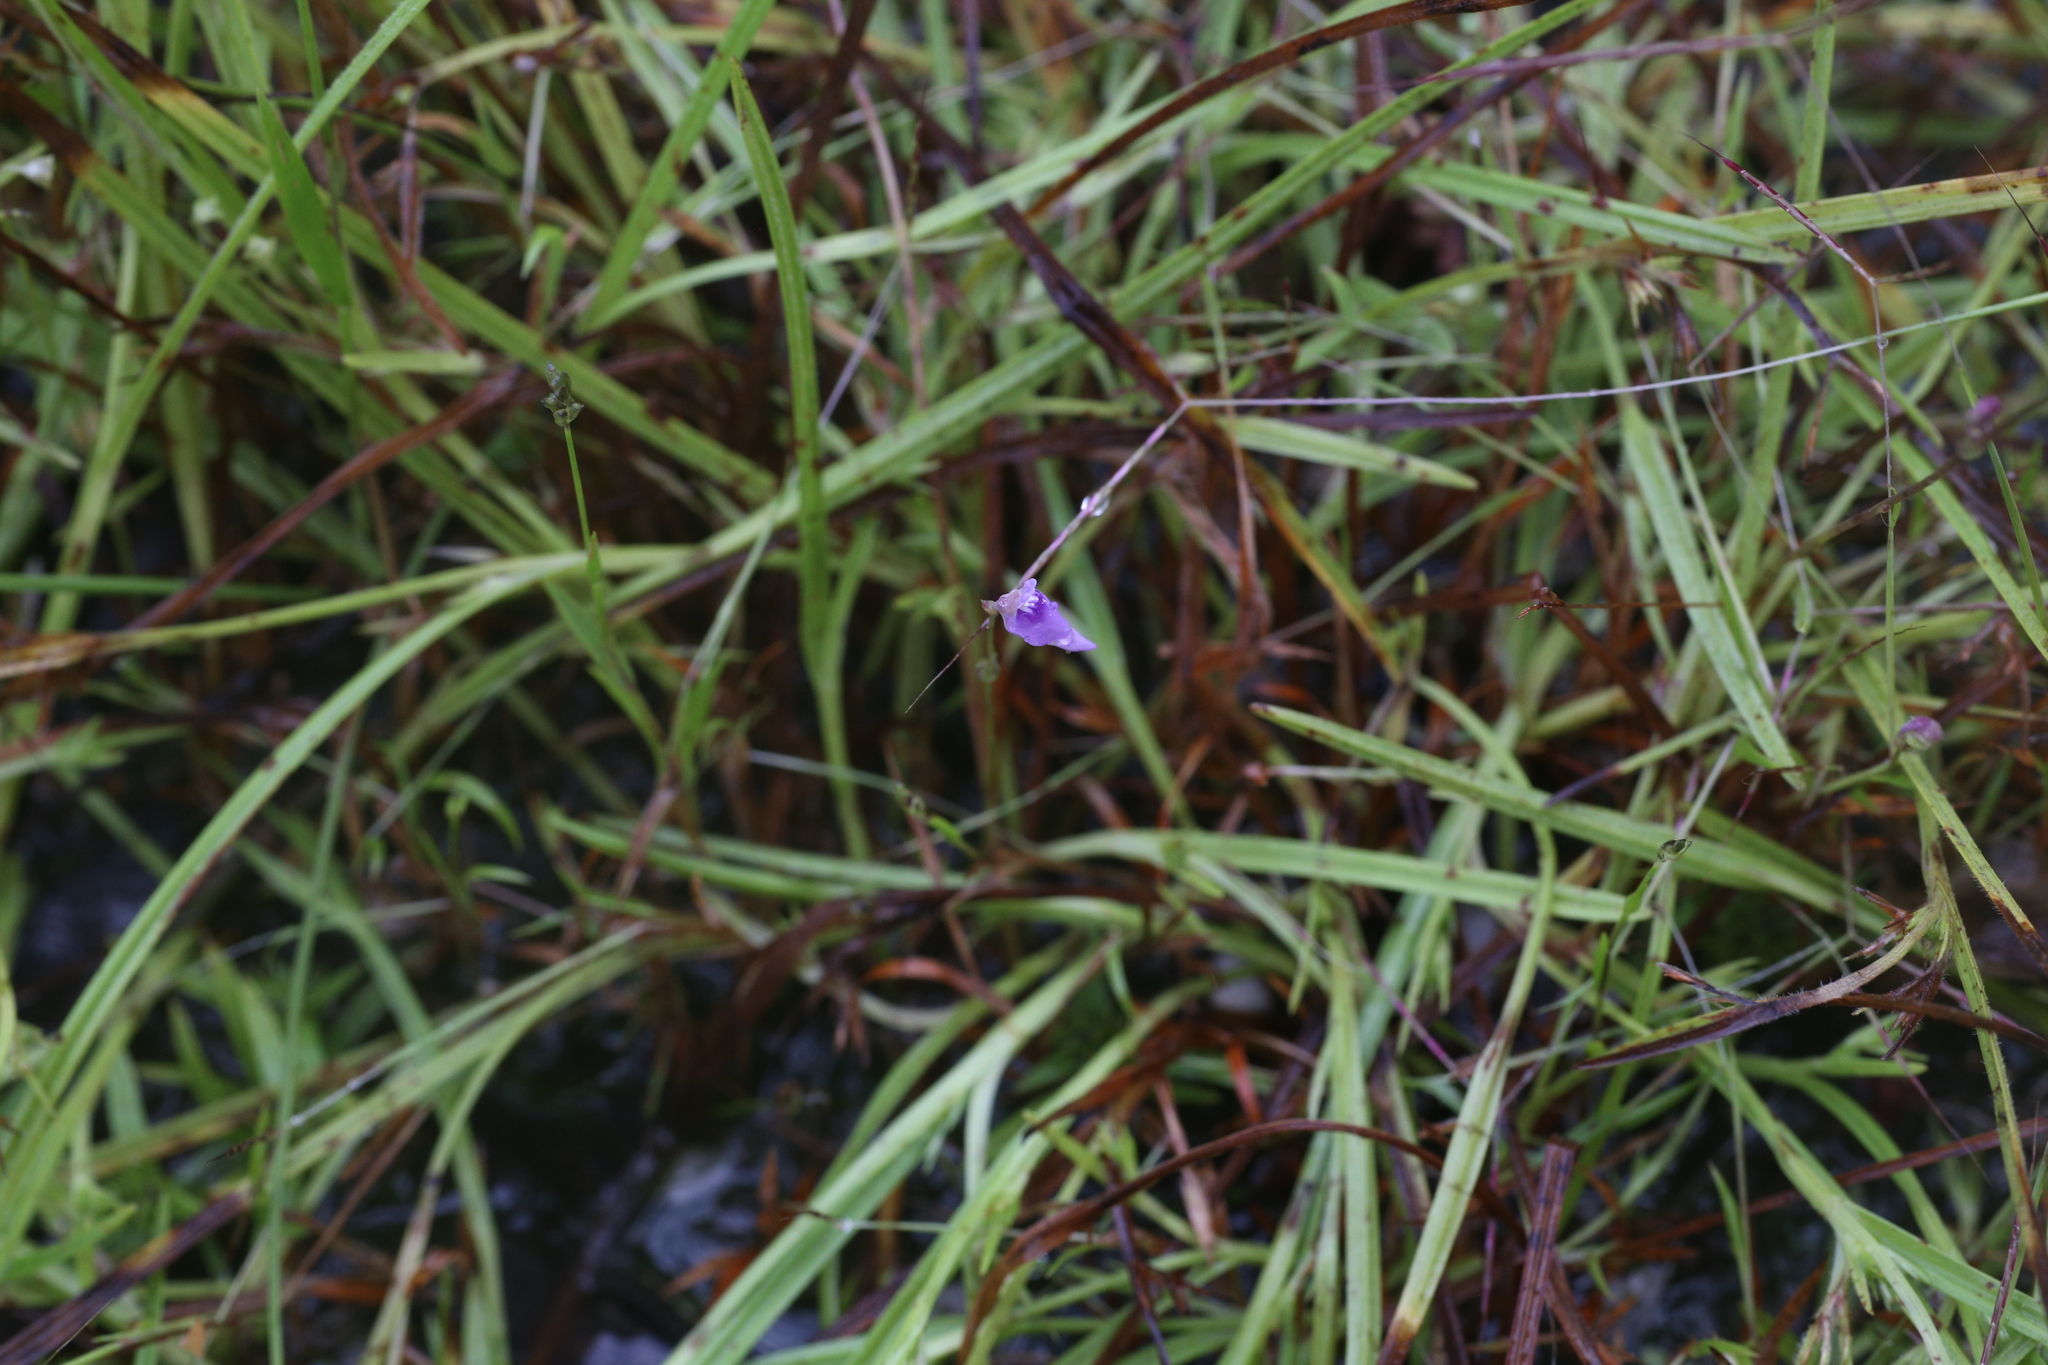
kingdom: Plantae
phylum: Tracheophyta
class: Magnoliopsida
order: Lamiales
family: Lentibulariaceae
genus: Utricularia
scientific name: Utricularia caerulea
